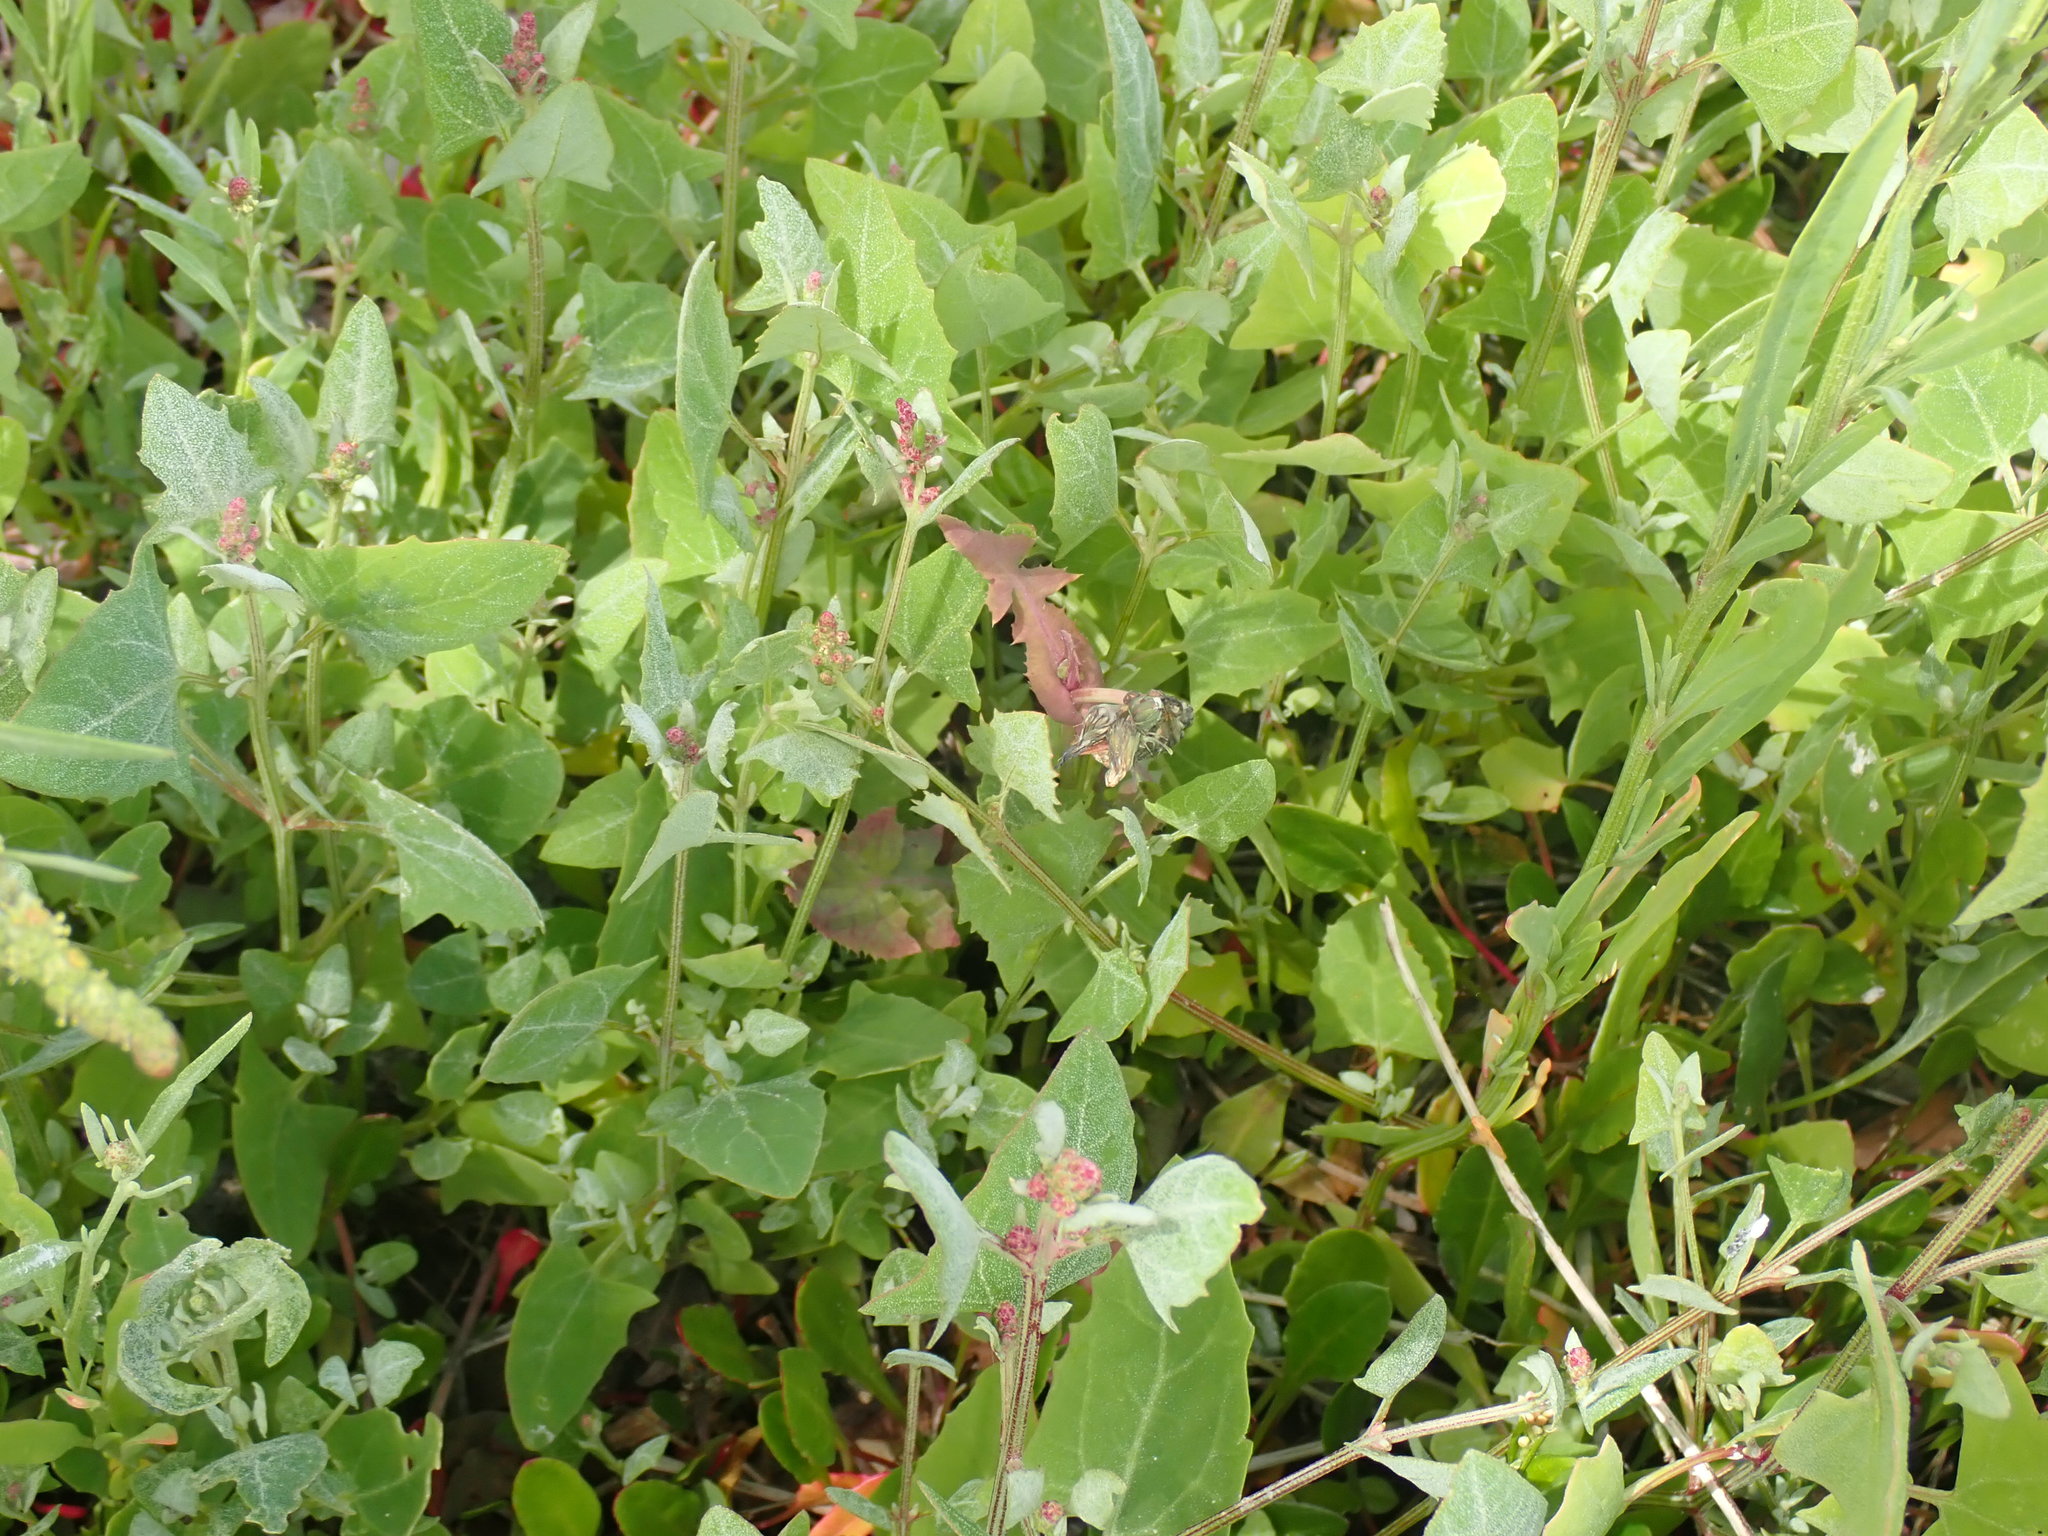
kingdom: Plantae
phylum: Tracheophyta
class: Magnoliopsida
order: Caryophyllales
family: Amaranthaceae
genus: Atriplex
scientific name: Atriplex prostrata
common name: Spear-leaved orache
